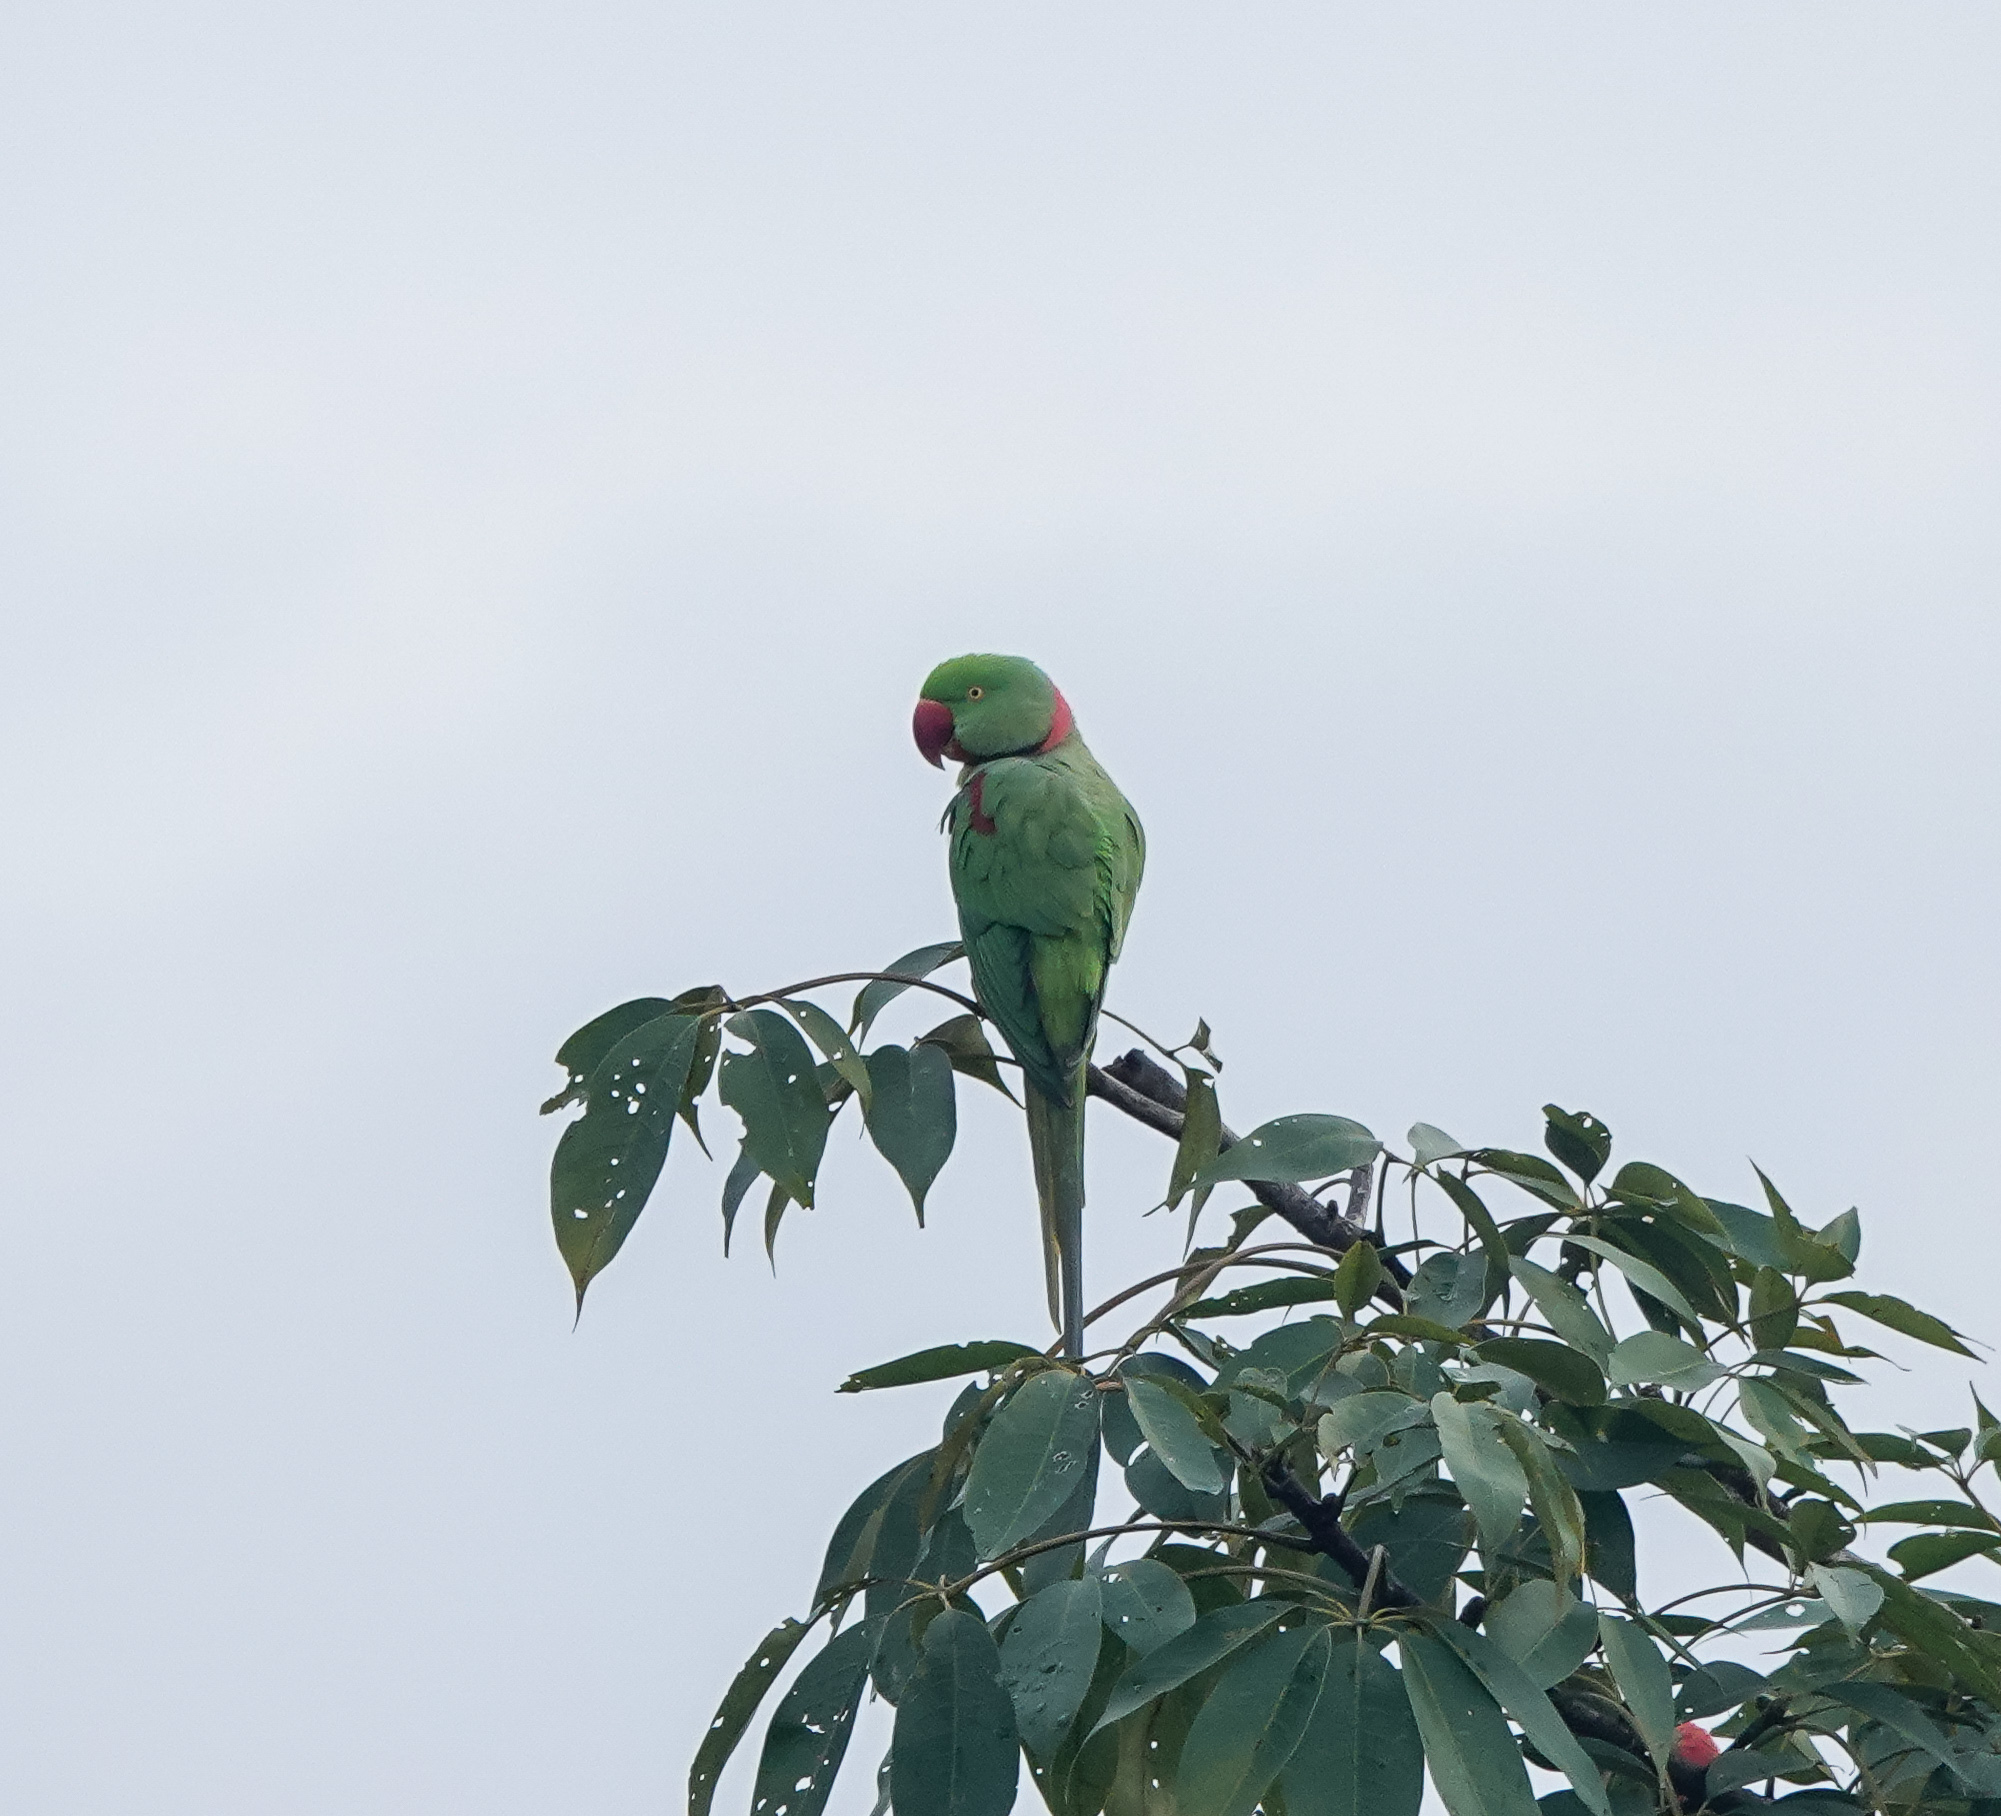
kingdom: Animalia
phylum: Chordata
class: Aves
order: Psittaciformes
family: Psittacidae
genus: Psittacula
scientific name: Psittacula eupatria
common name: Alexandrine parakeet
